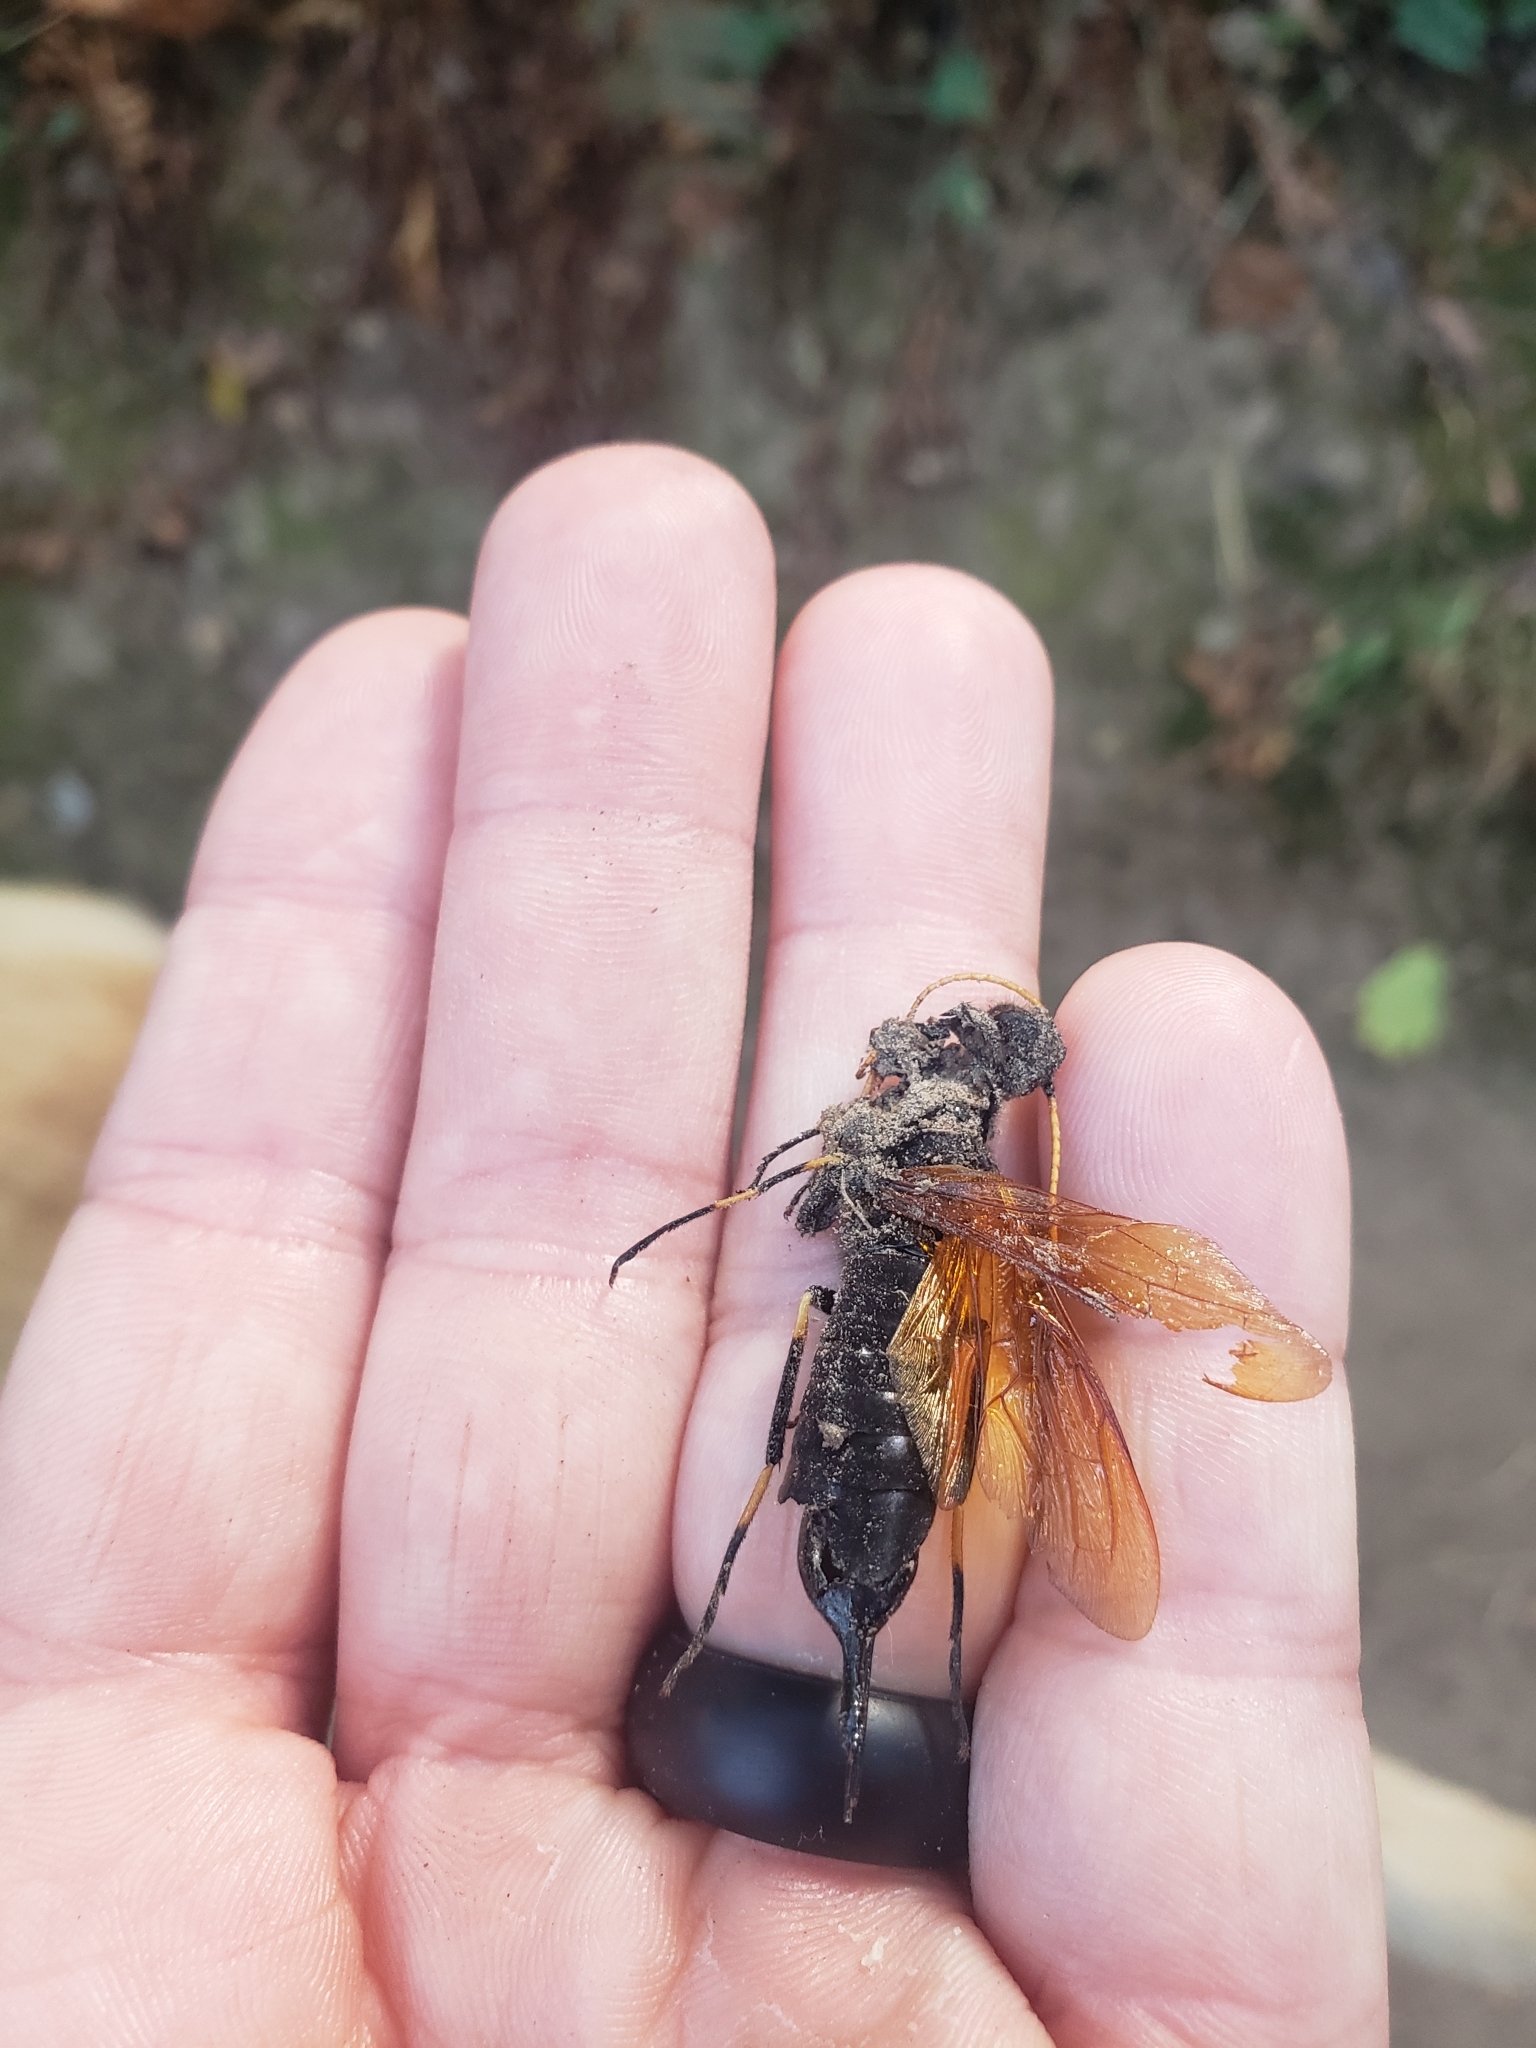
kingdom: Animalia
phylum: Arthropoda
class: Insecta
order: Hymenoptera
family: Siricidae
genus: Urocerus
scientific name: Urocerus californicus
